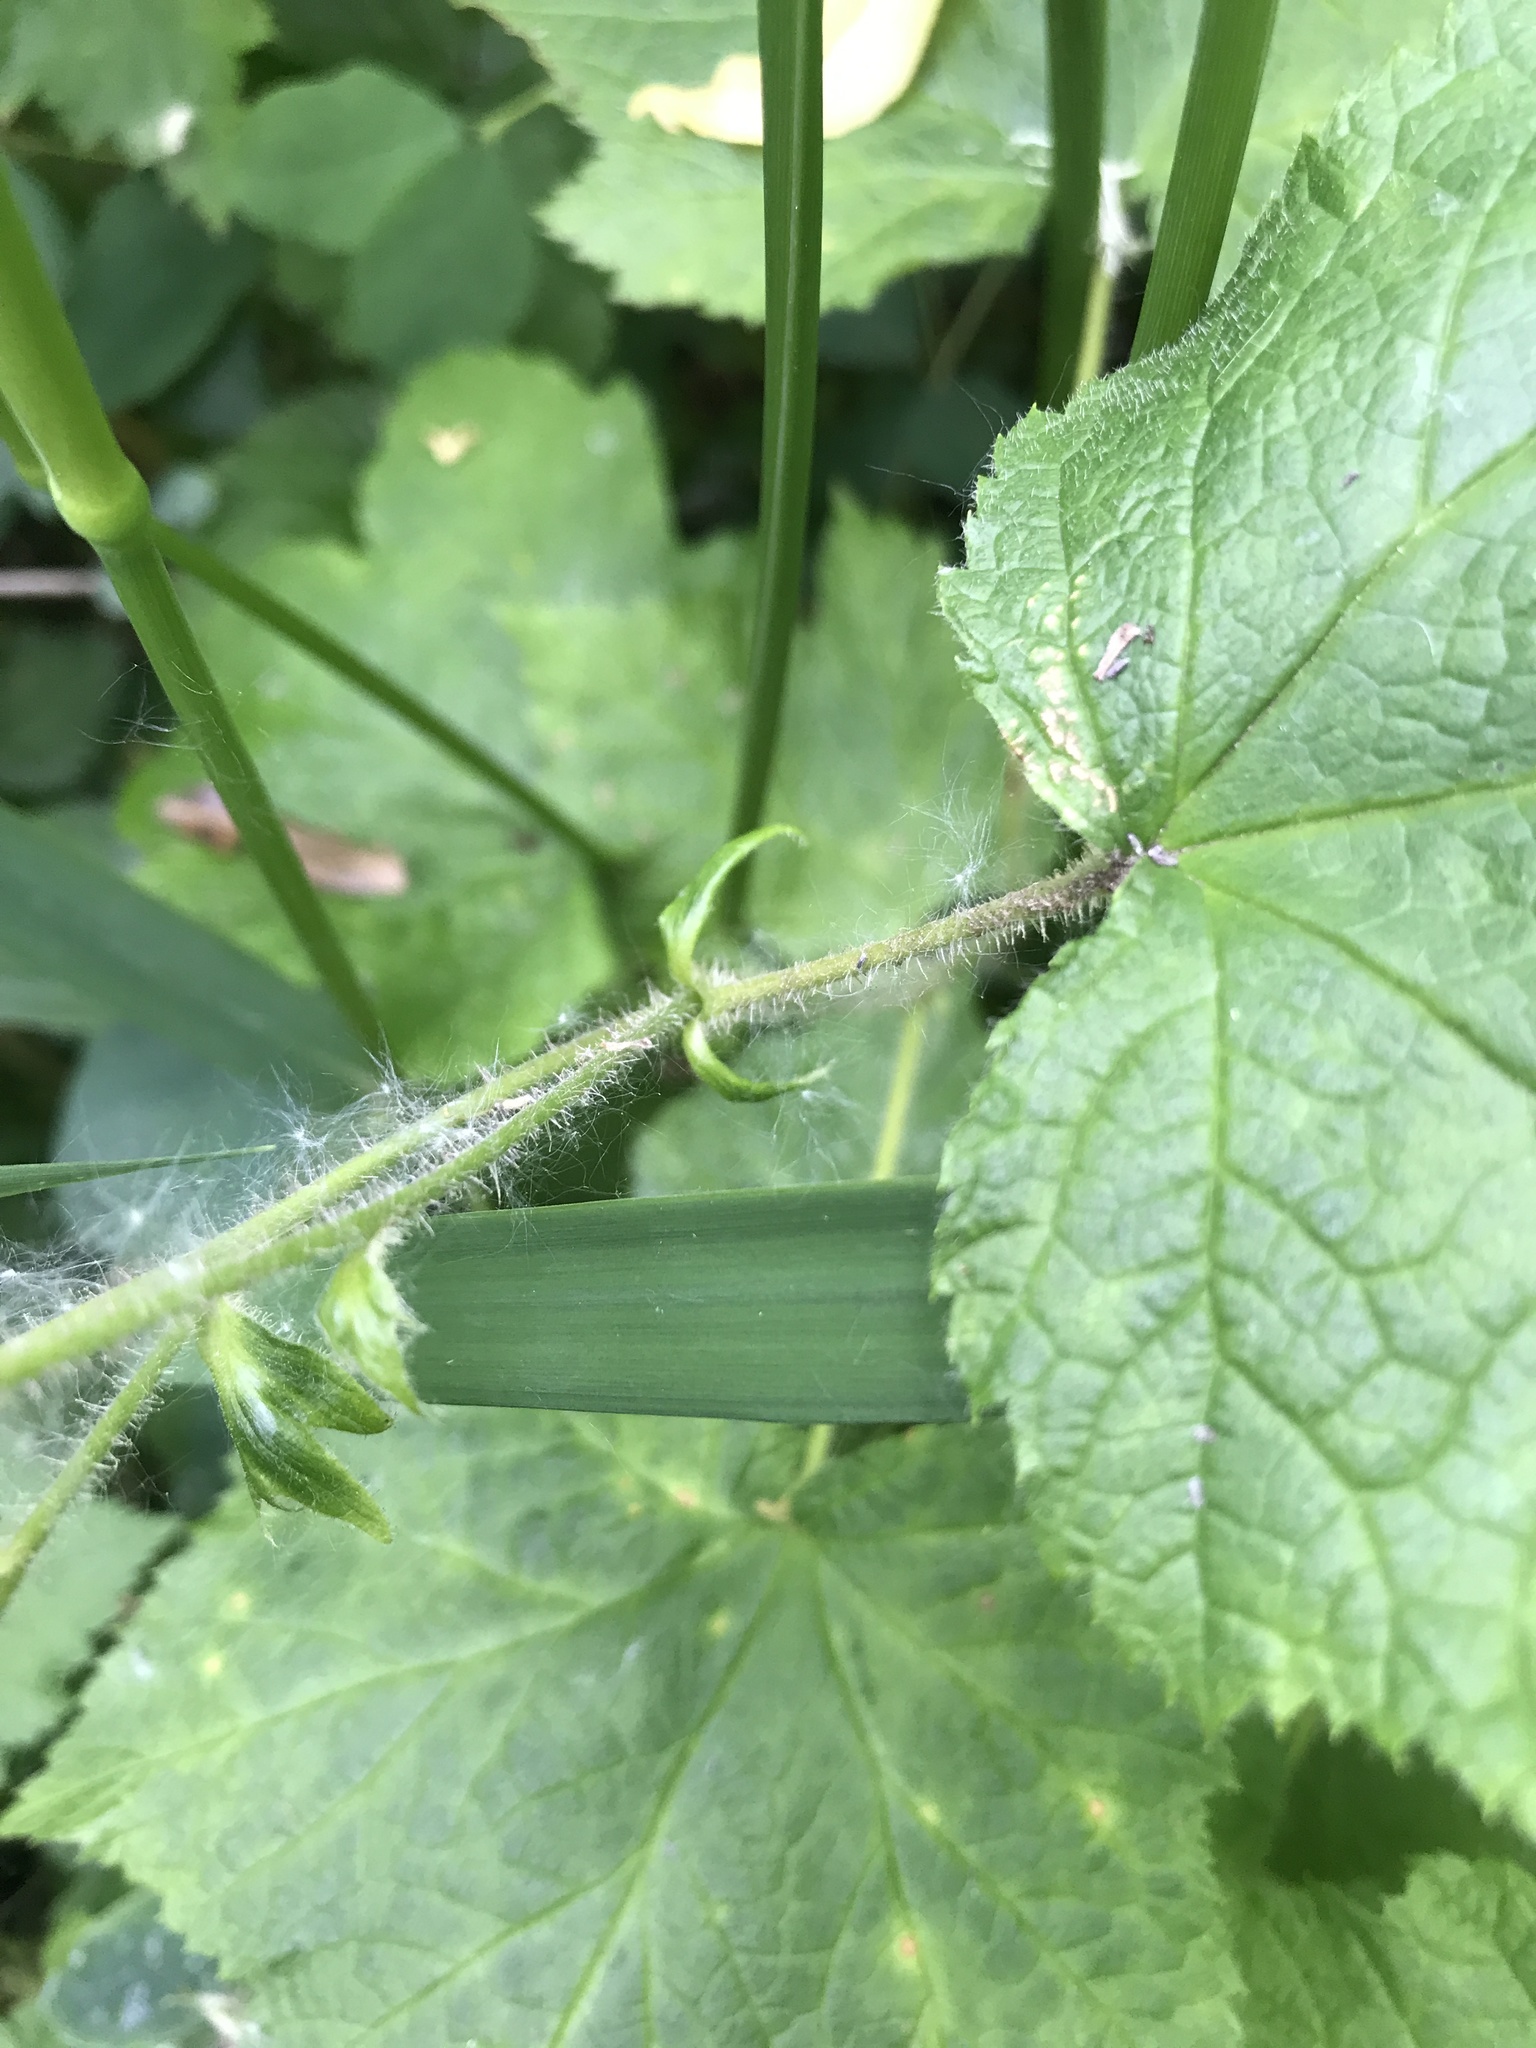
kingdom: Plantae
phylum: Tracheophyta
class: Magnoliopsida
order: Rosales
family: Rosaceae
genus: Rubus
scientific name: Rubus parviflorus
